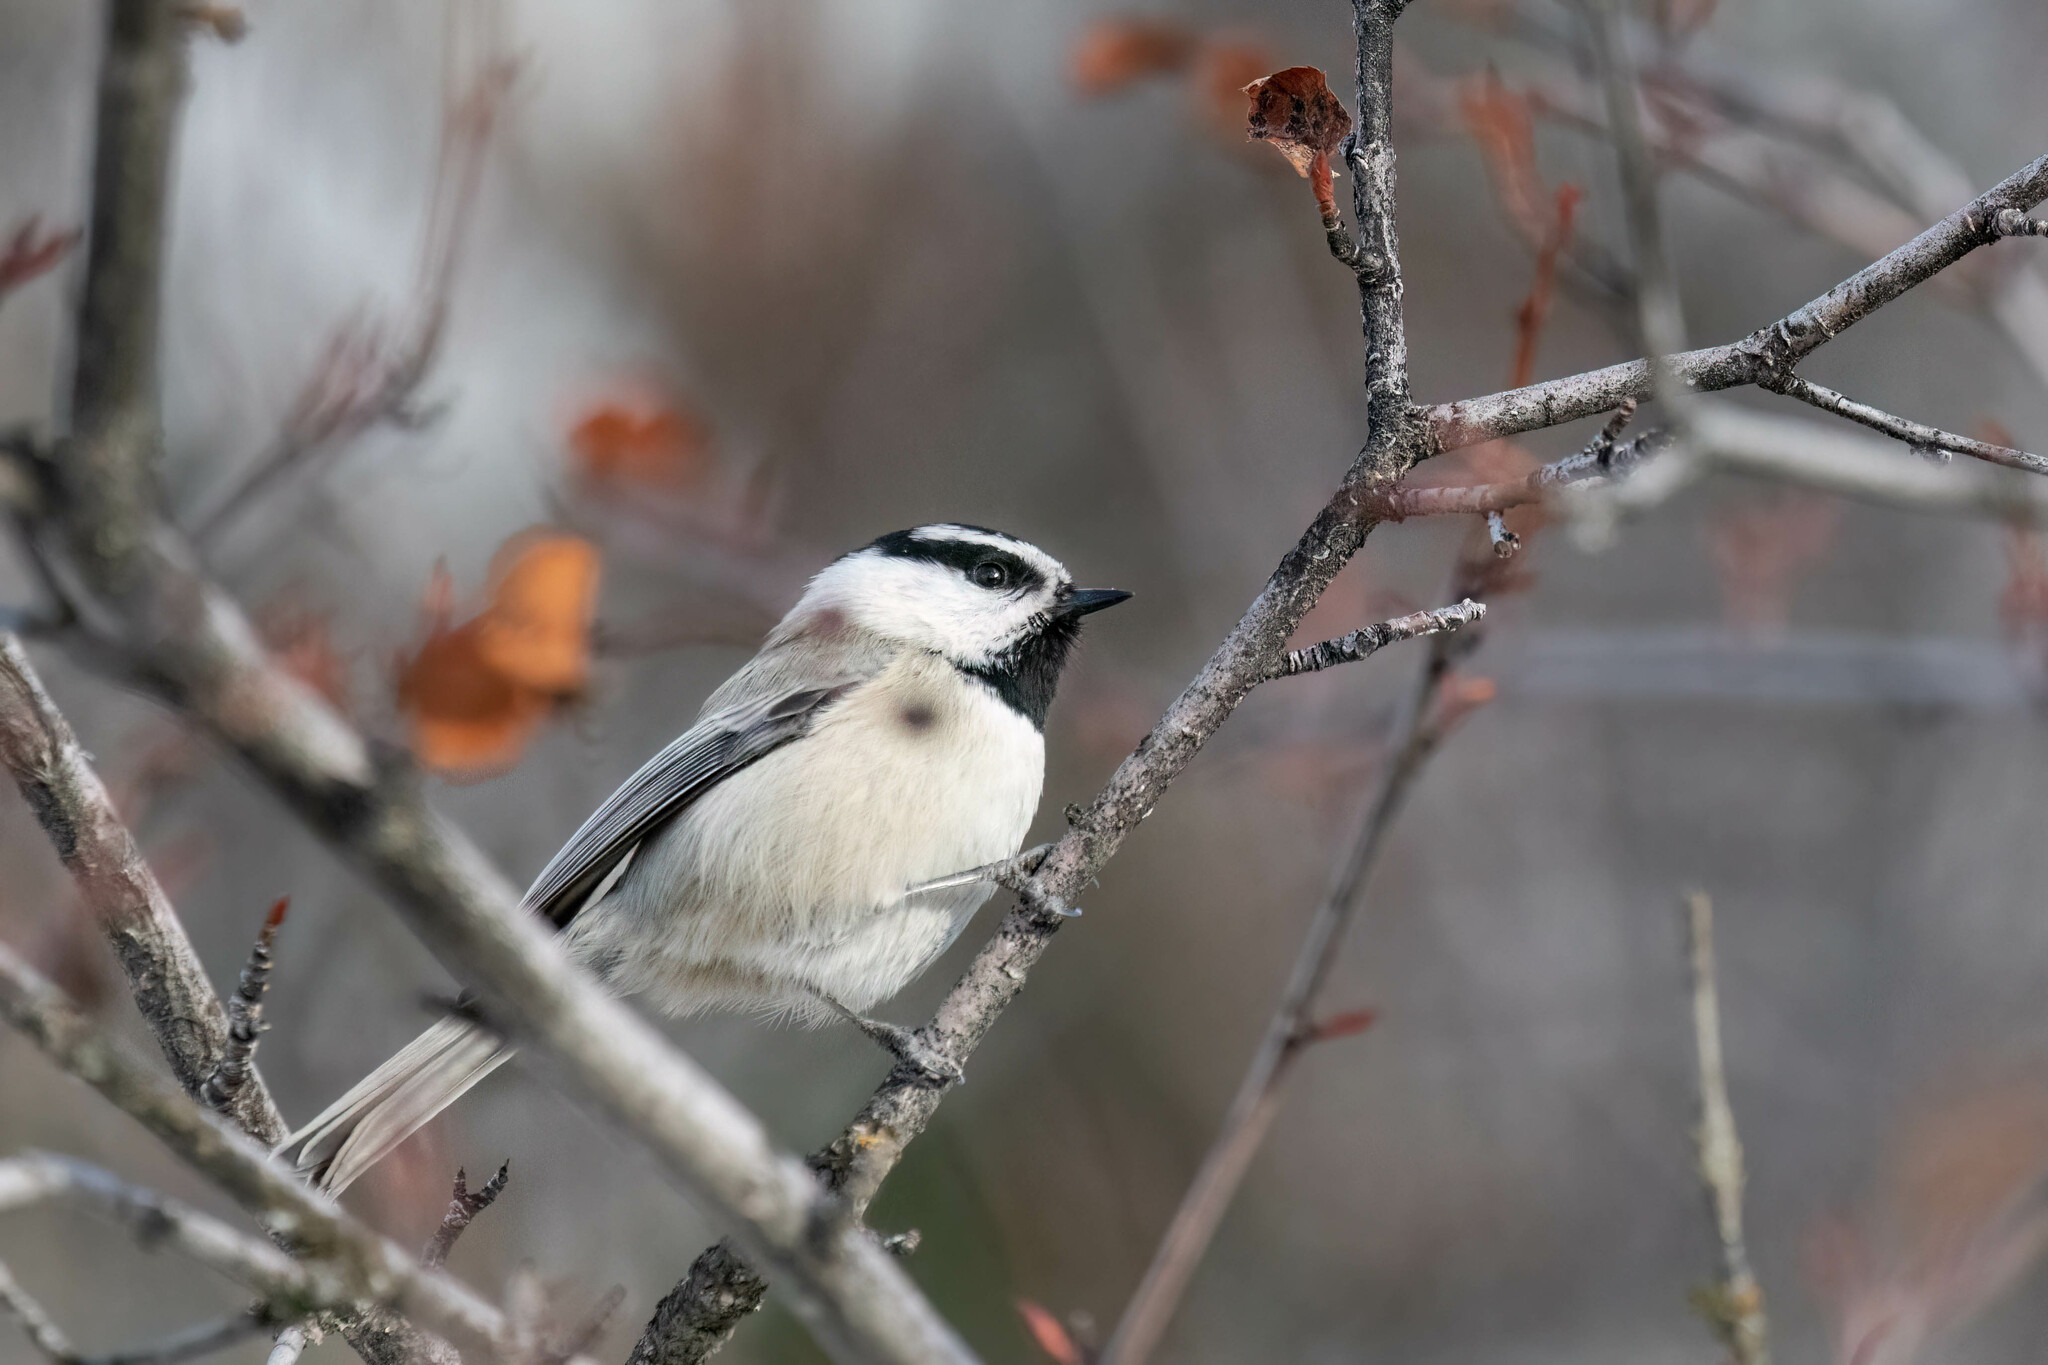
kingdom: Animalia
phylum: Chordata
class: Aves
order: Passeriformes
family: Paridae
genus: Poecile
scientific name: Poecile gambeli
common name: Mountain chickadee
